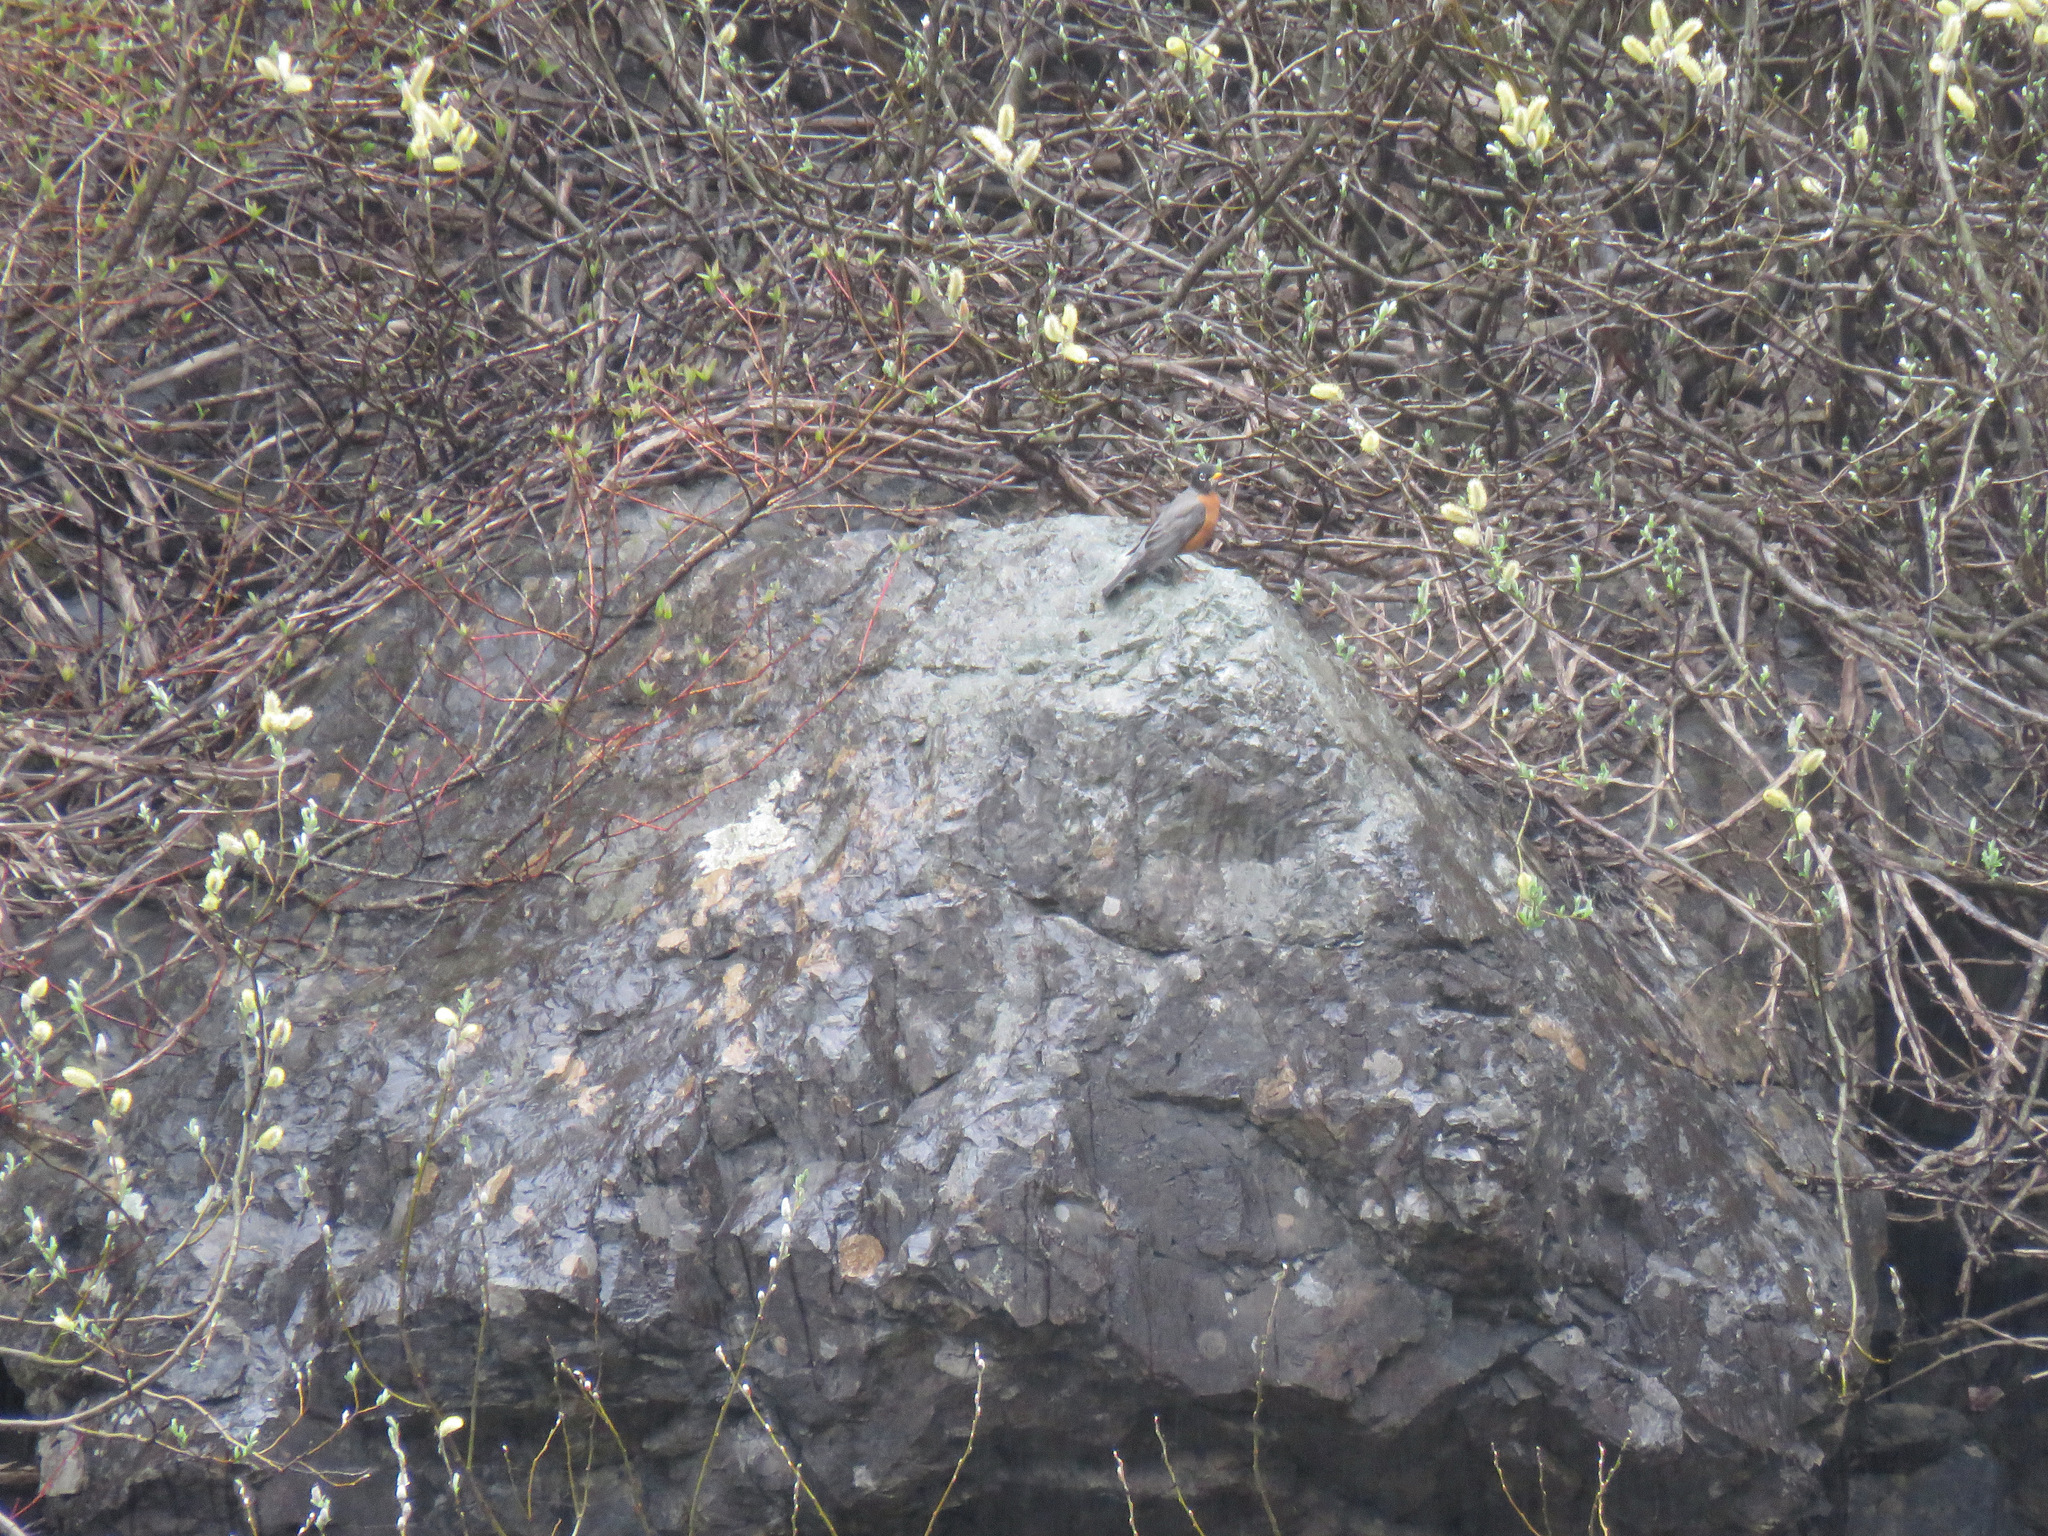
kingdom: Animalia
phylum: Chordata
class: Aves
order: Passeriformes
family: Turdidae
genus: Turdus
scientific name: Turdus migratorius
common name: American robin
